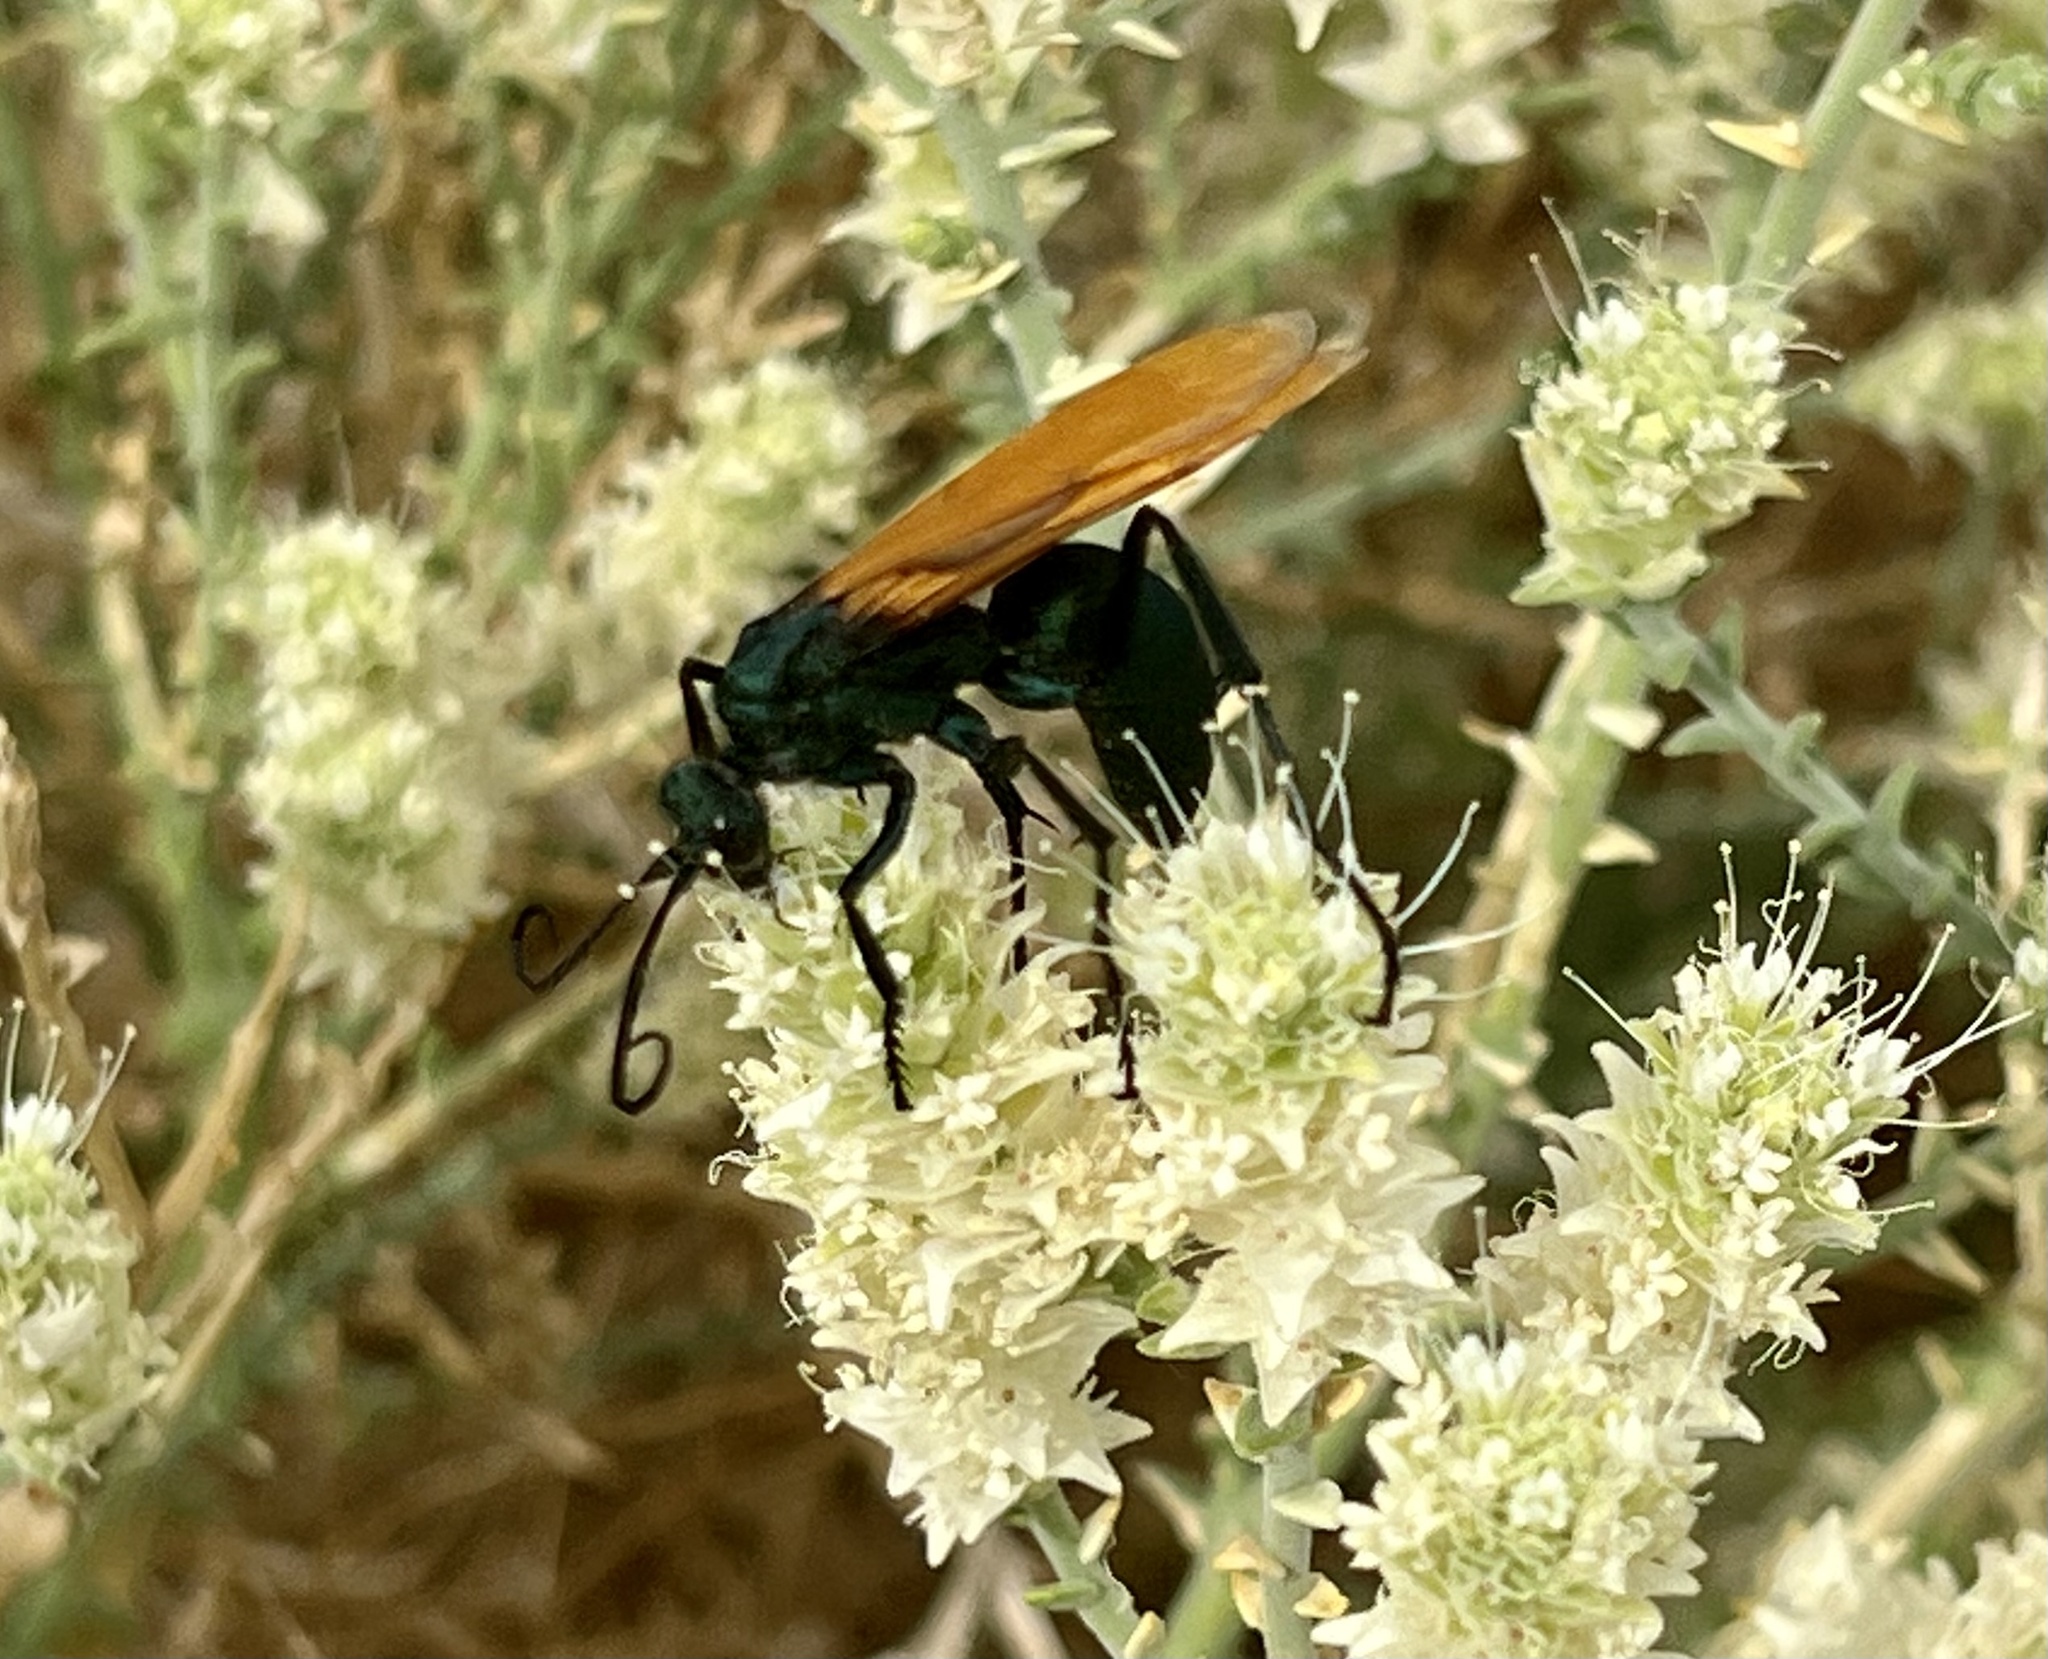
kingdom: Animalia
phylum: Arthropoda
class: Insecta
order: Hymenoptera
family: Pompilidae
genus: Pepsis
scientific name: Pepsis thisbe
